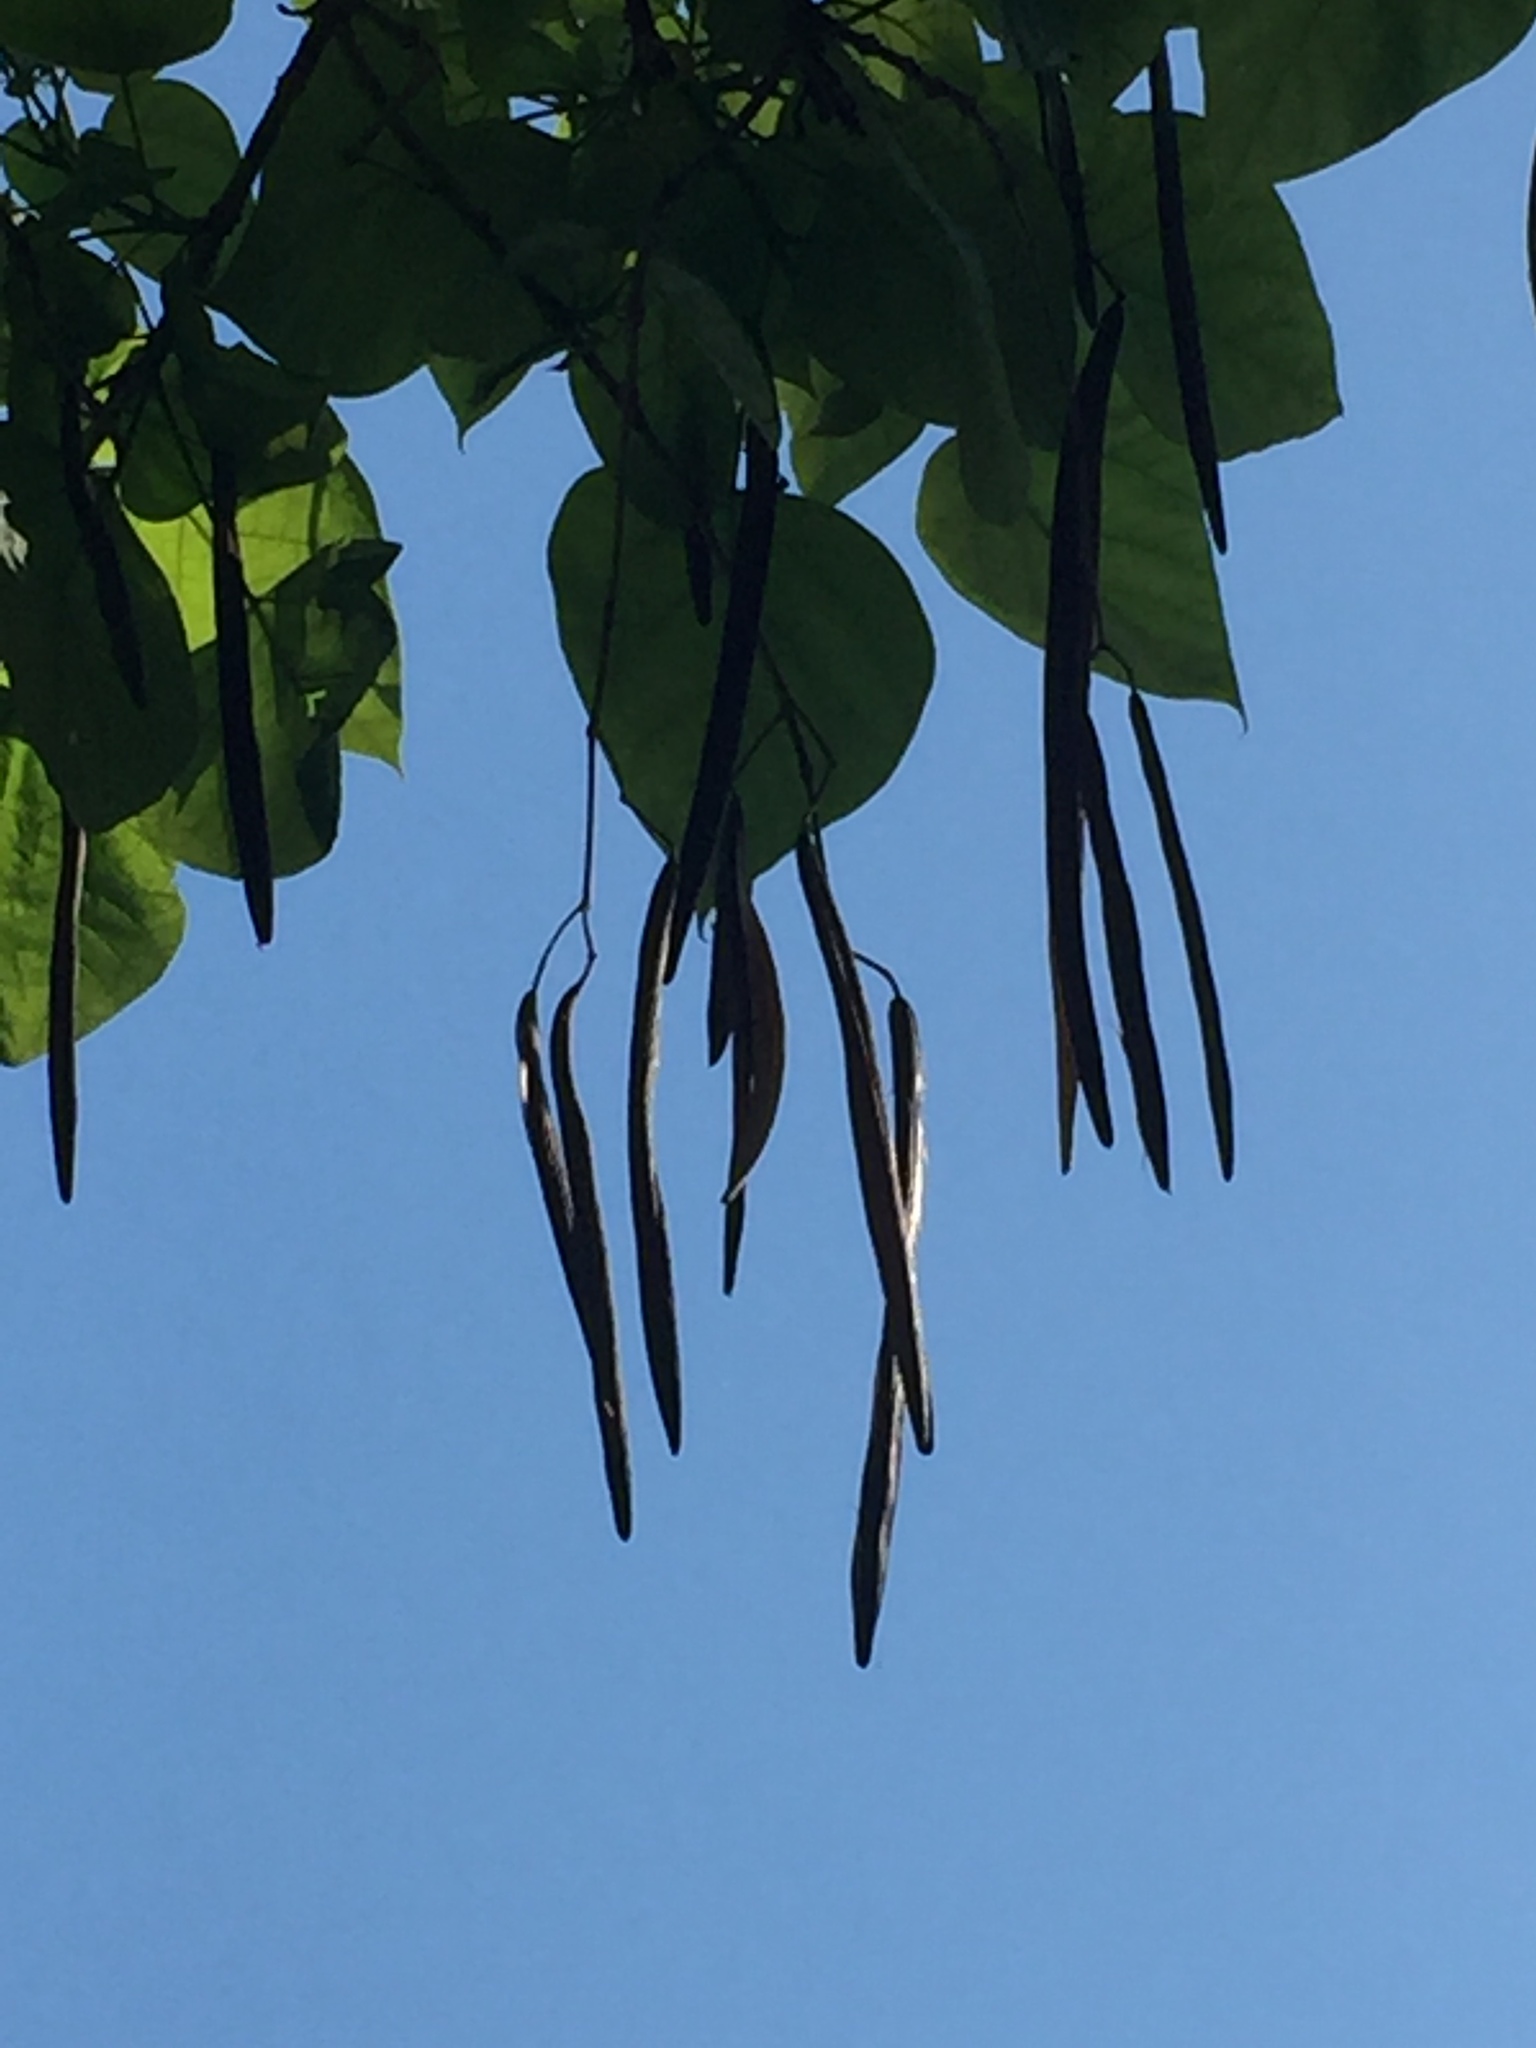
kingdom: Plantae
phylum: Tracheophyta
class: Magnoliopsida
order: Lamiales
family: Bignoniaceae
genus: Catalpa
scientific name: Catalpa speciosa
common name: Northern catalpa
